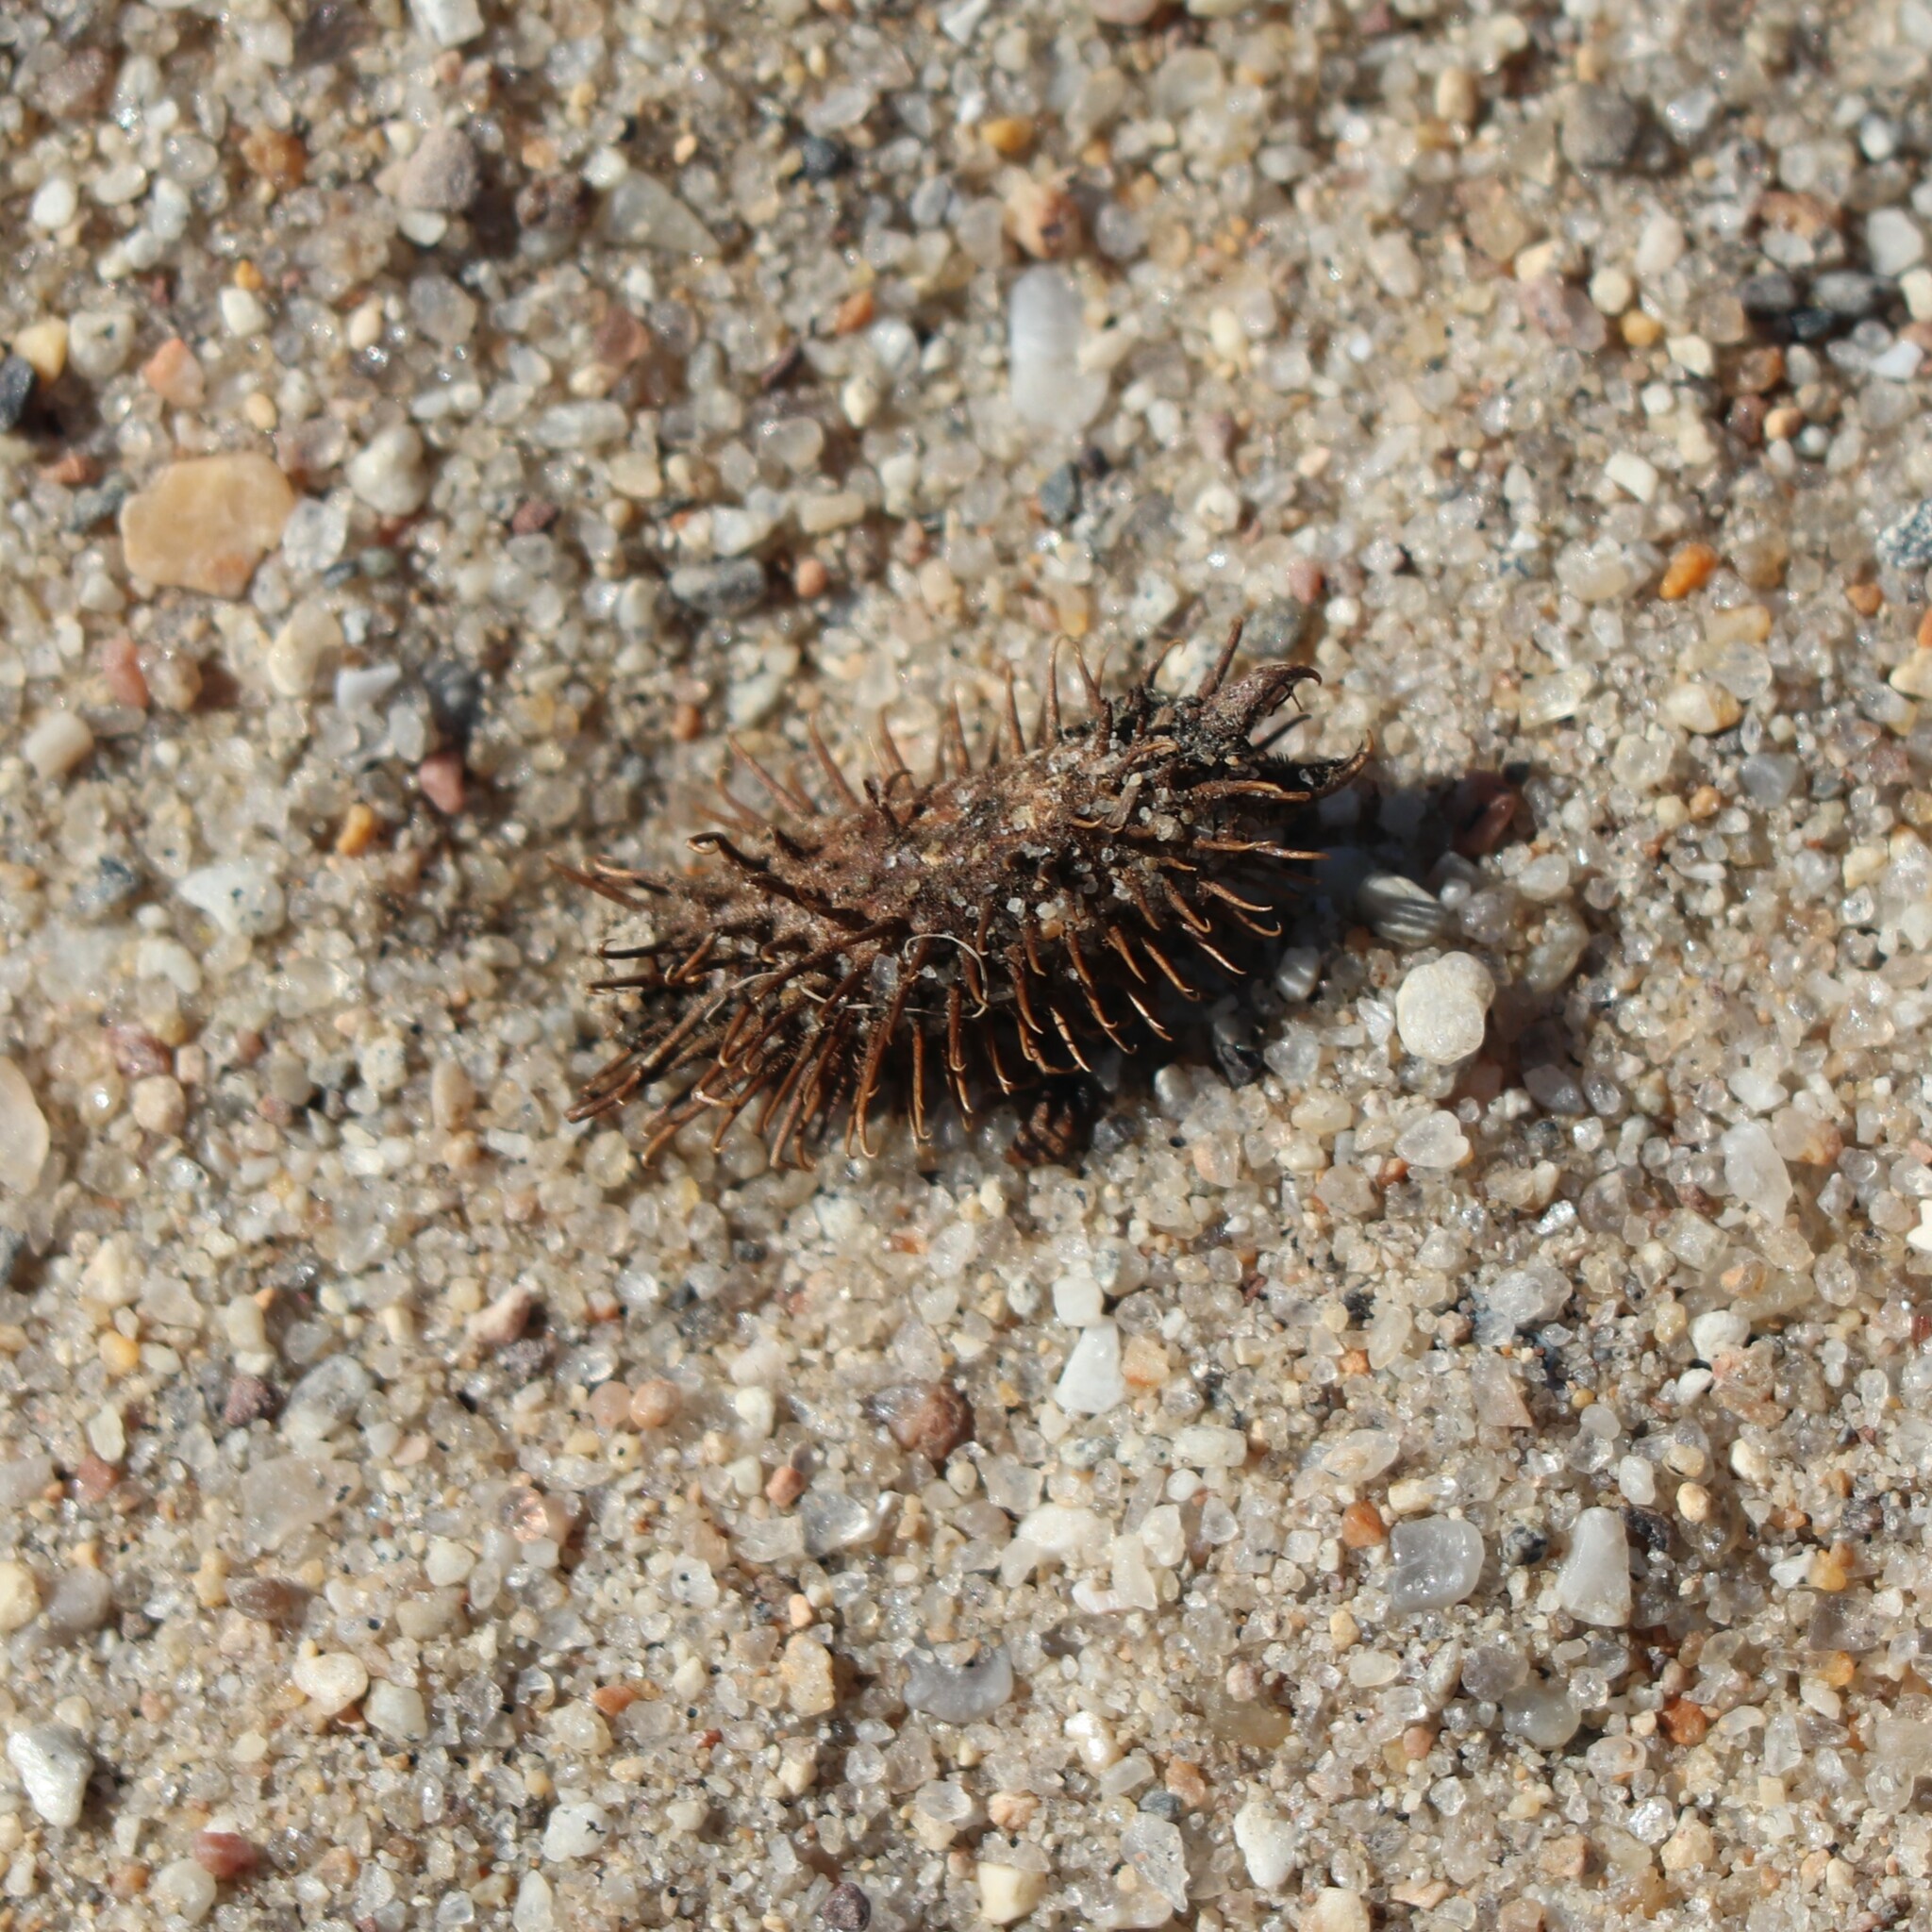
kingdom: Plantae
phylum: Tracheophyta
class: Magnoliopsida
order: Asterales
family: Asteraceae
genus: Xanthium
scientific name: Xanthium strumarium
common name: Rough cocklebur
